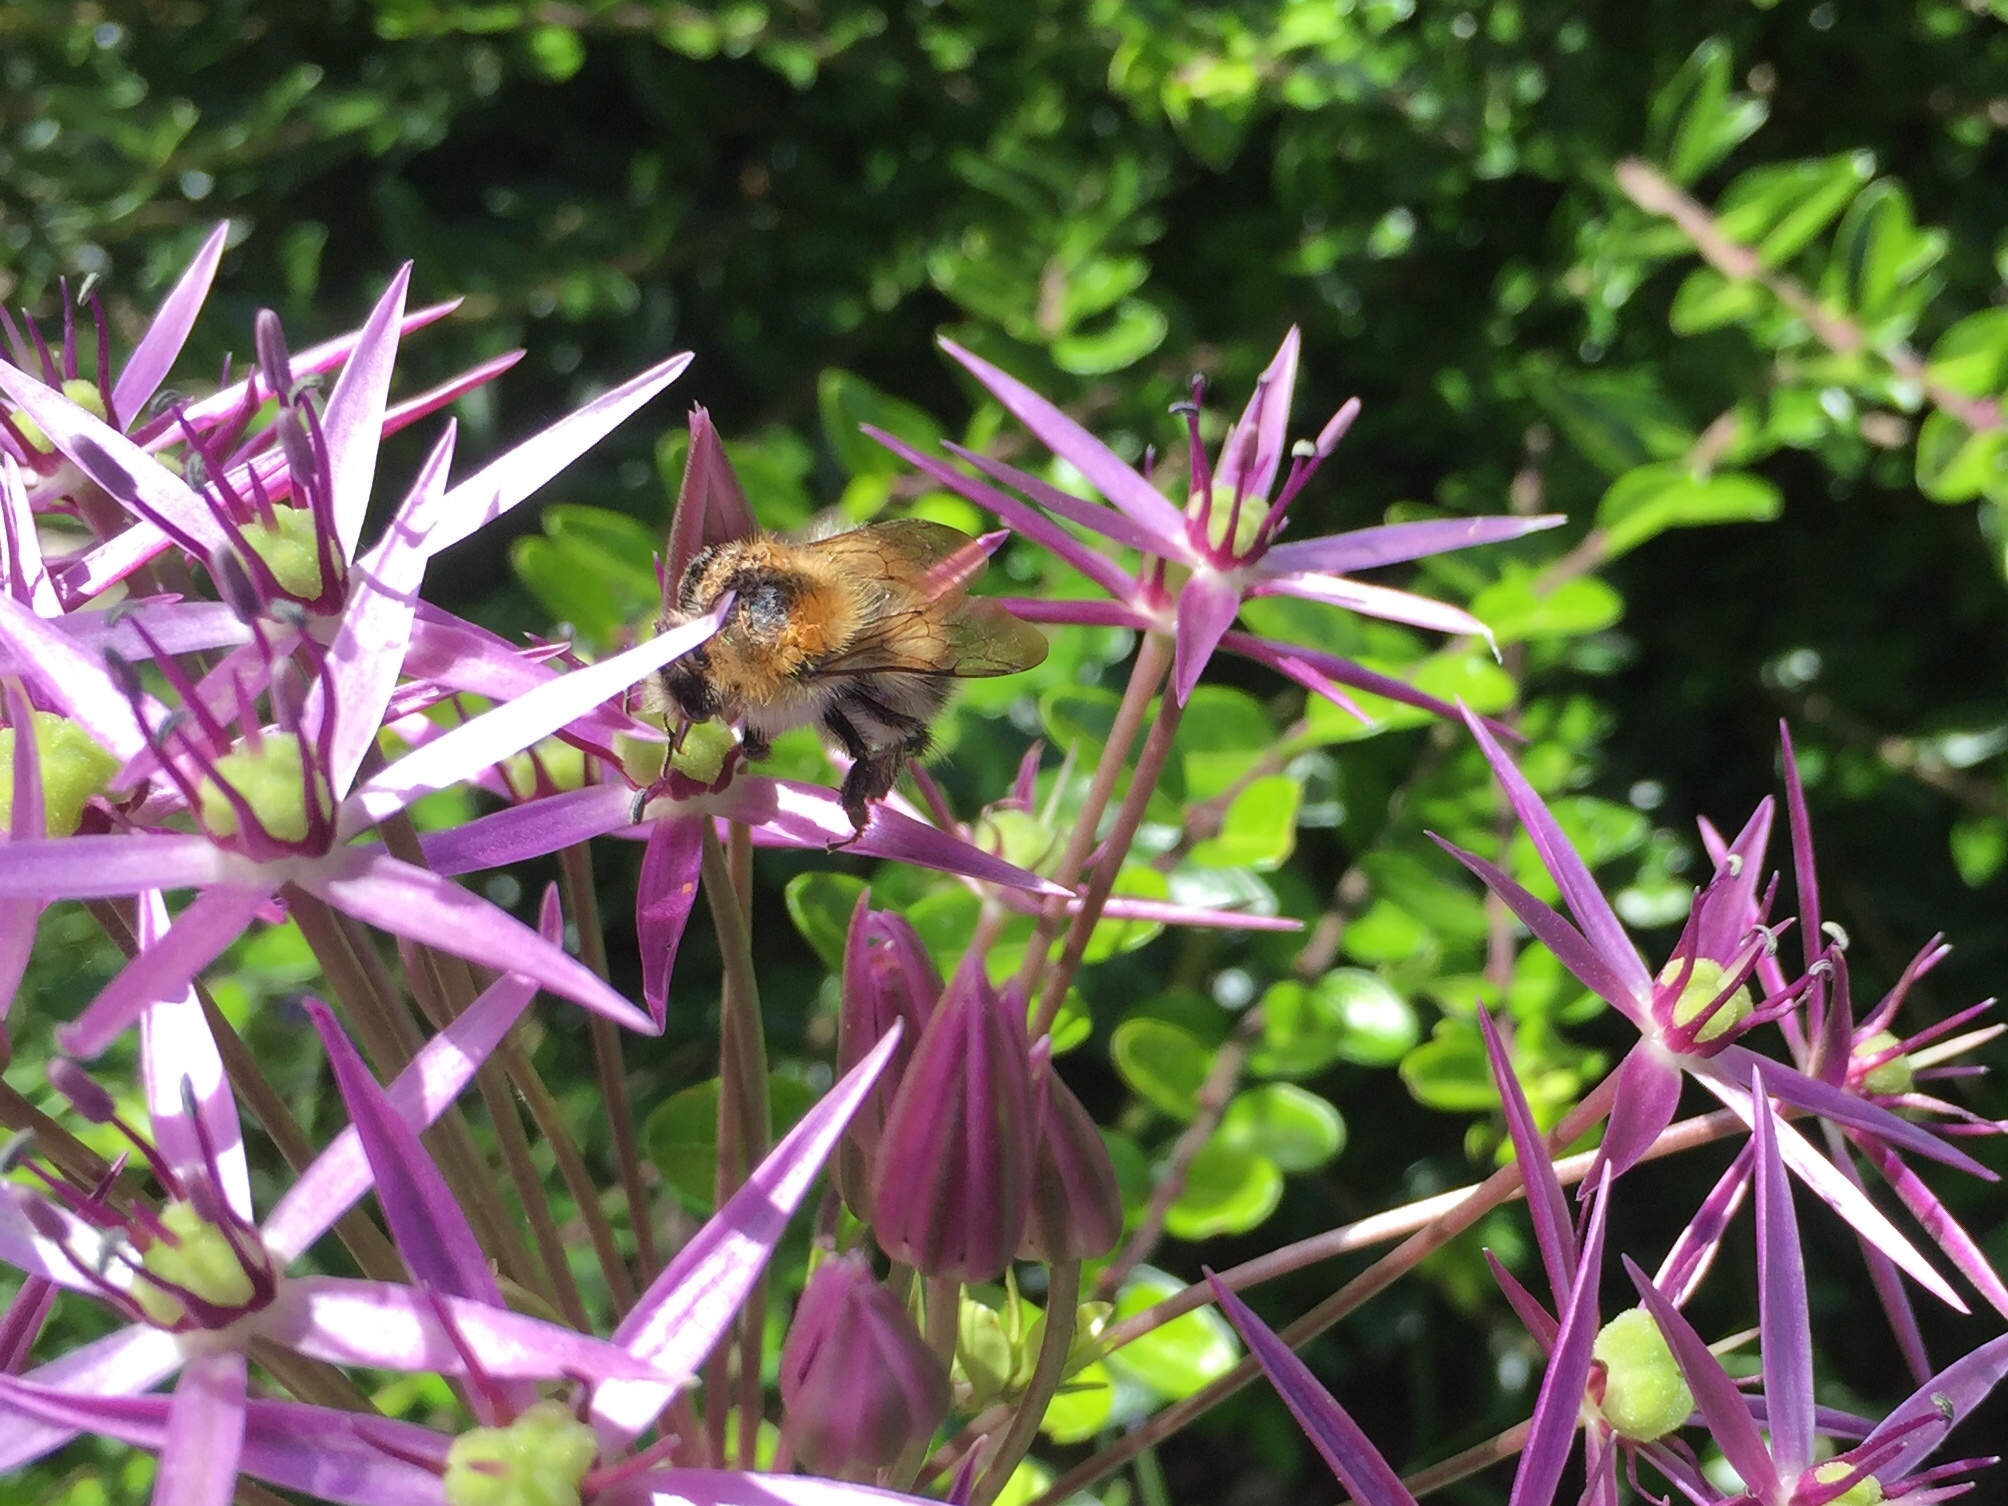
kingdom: Animalia
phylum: Arthropoda
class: Insecta
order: Hymenoptera
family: Apidae
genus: Bombus
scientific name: Bombus pascuorum
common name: Common carder bee
